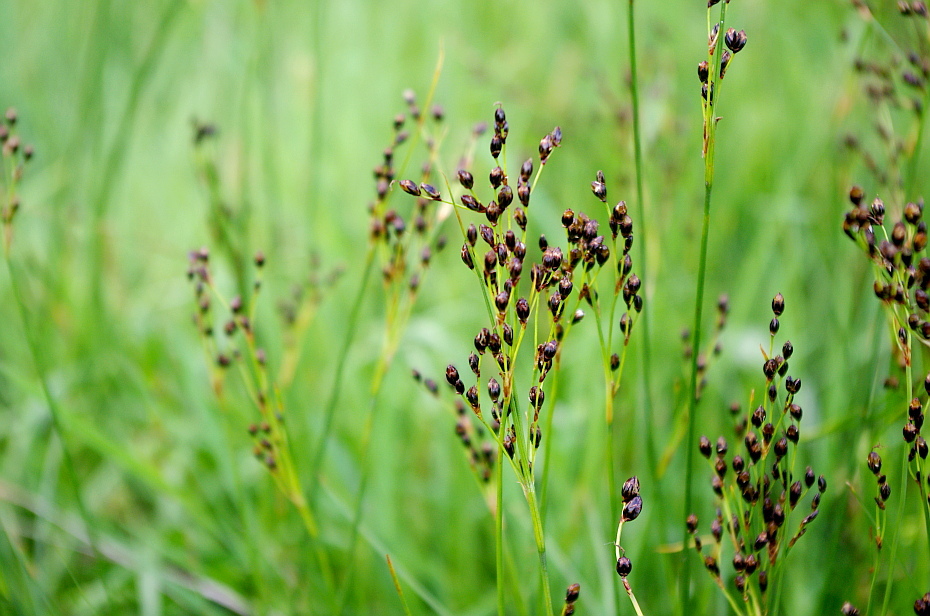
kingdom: Plantae
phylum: Tracheophyta
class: Liliopsida
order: Poales
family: Juncaceae
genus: Juncus
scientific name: Juncus gerardi
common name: Saltmarsh rush
